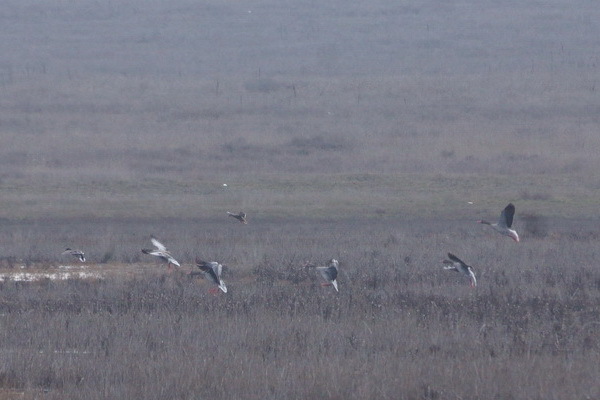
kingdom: Animalia
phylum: Chordata
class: Aves
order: Anseriformes
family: Anatidae
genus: Anser
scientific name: Anser anser
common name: Greylag goose
